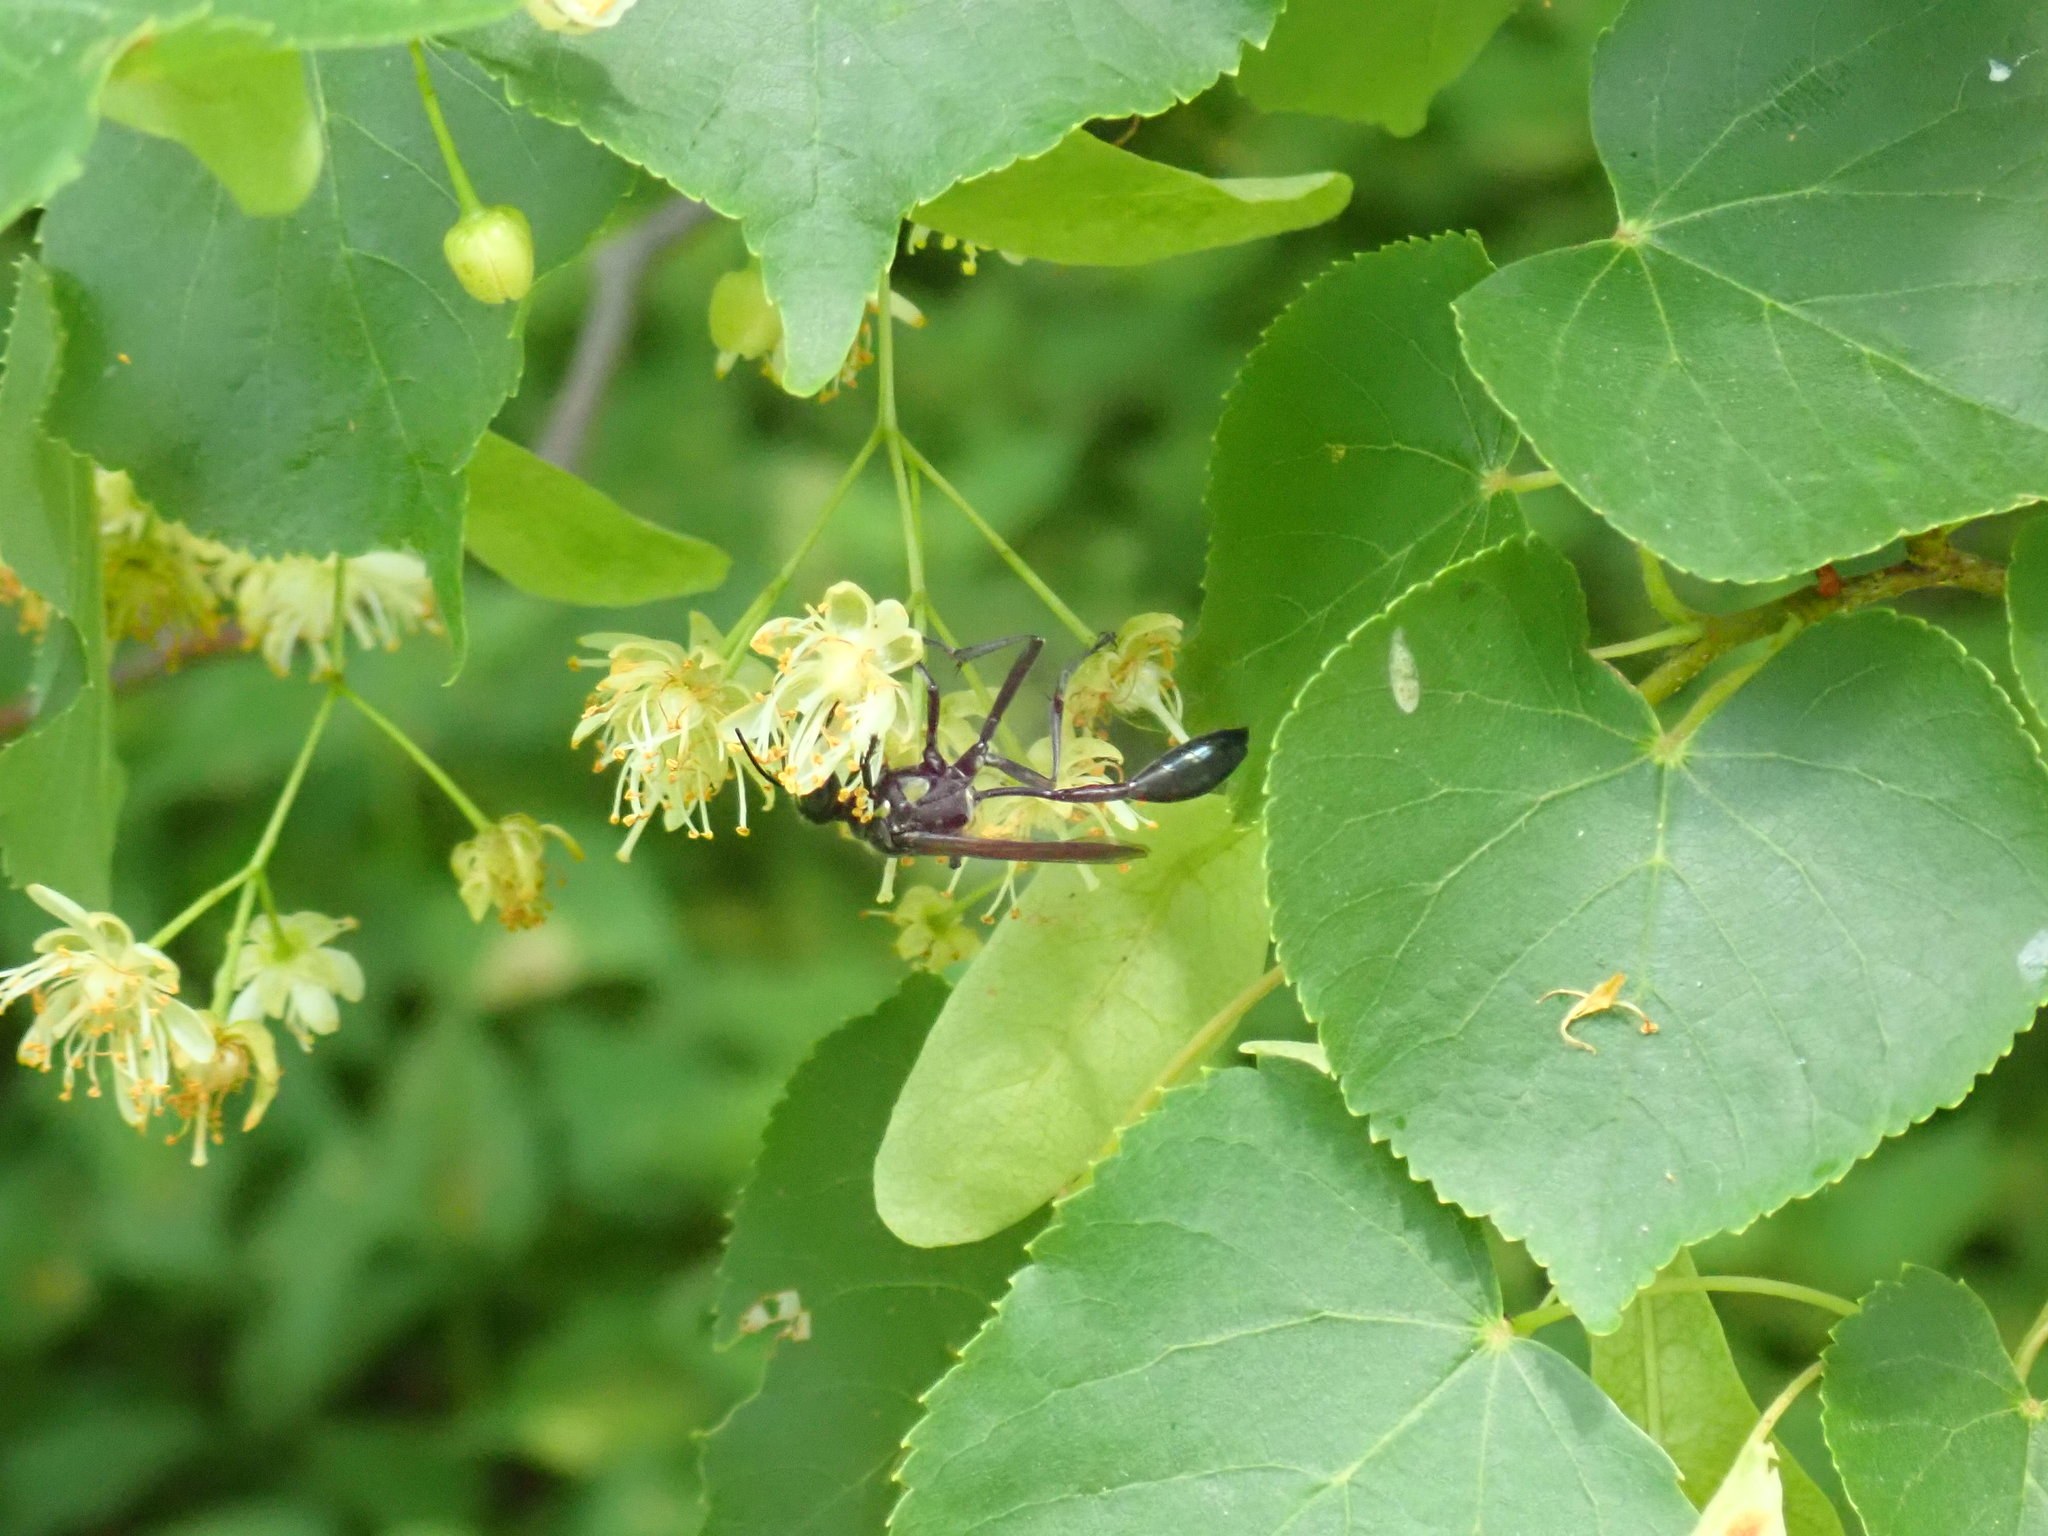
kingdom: Animalia
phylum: Arthropoda
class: Insecta
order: Hymenoptera
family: Sphecidae
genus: Eremnophila
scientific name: Eremnophila aureonotata
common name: Gold-marked thread-waisted wasp
